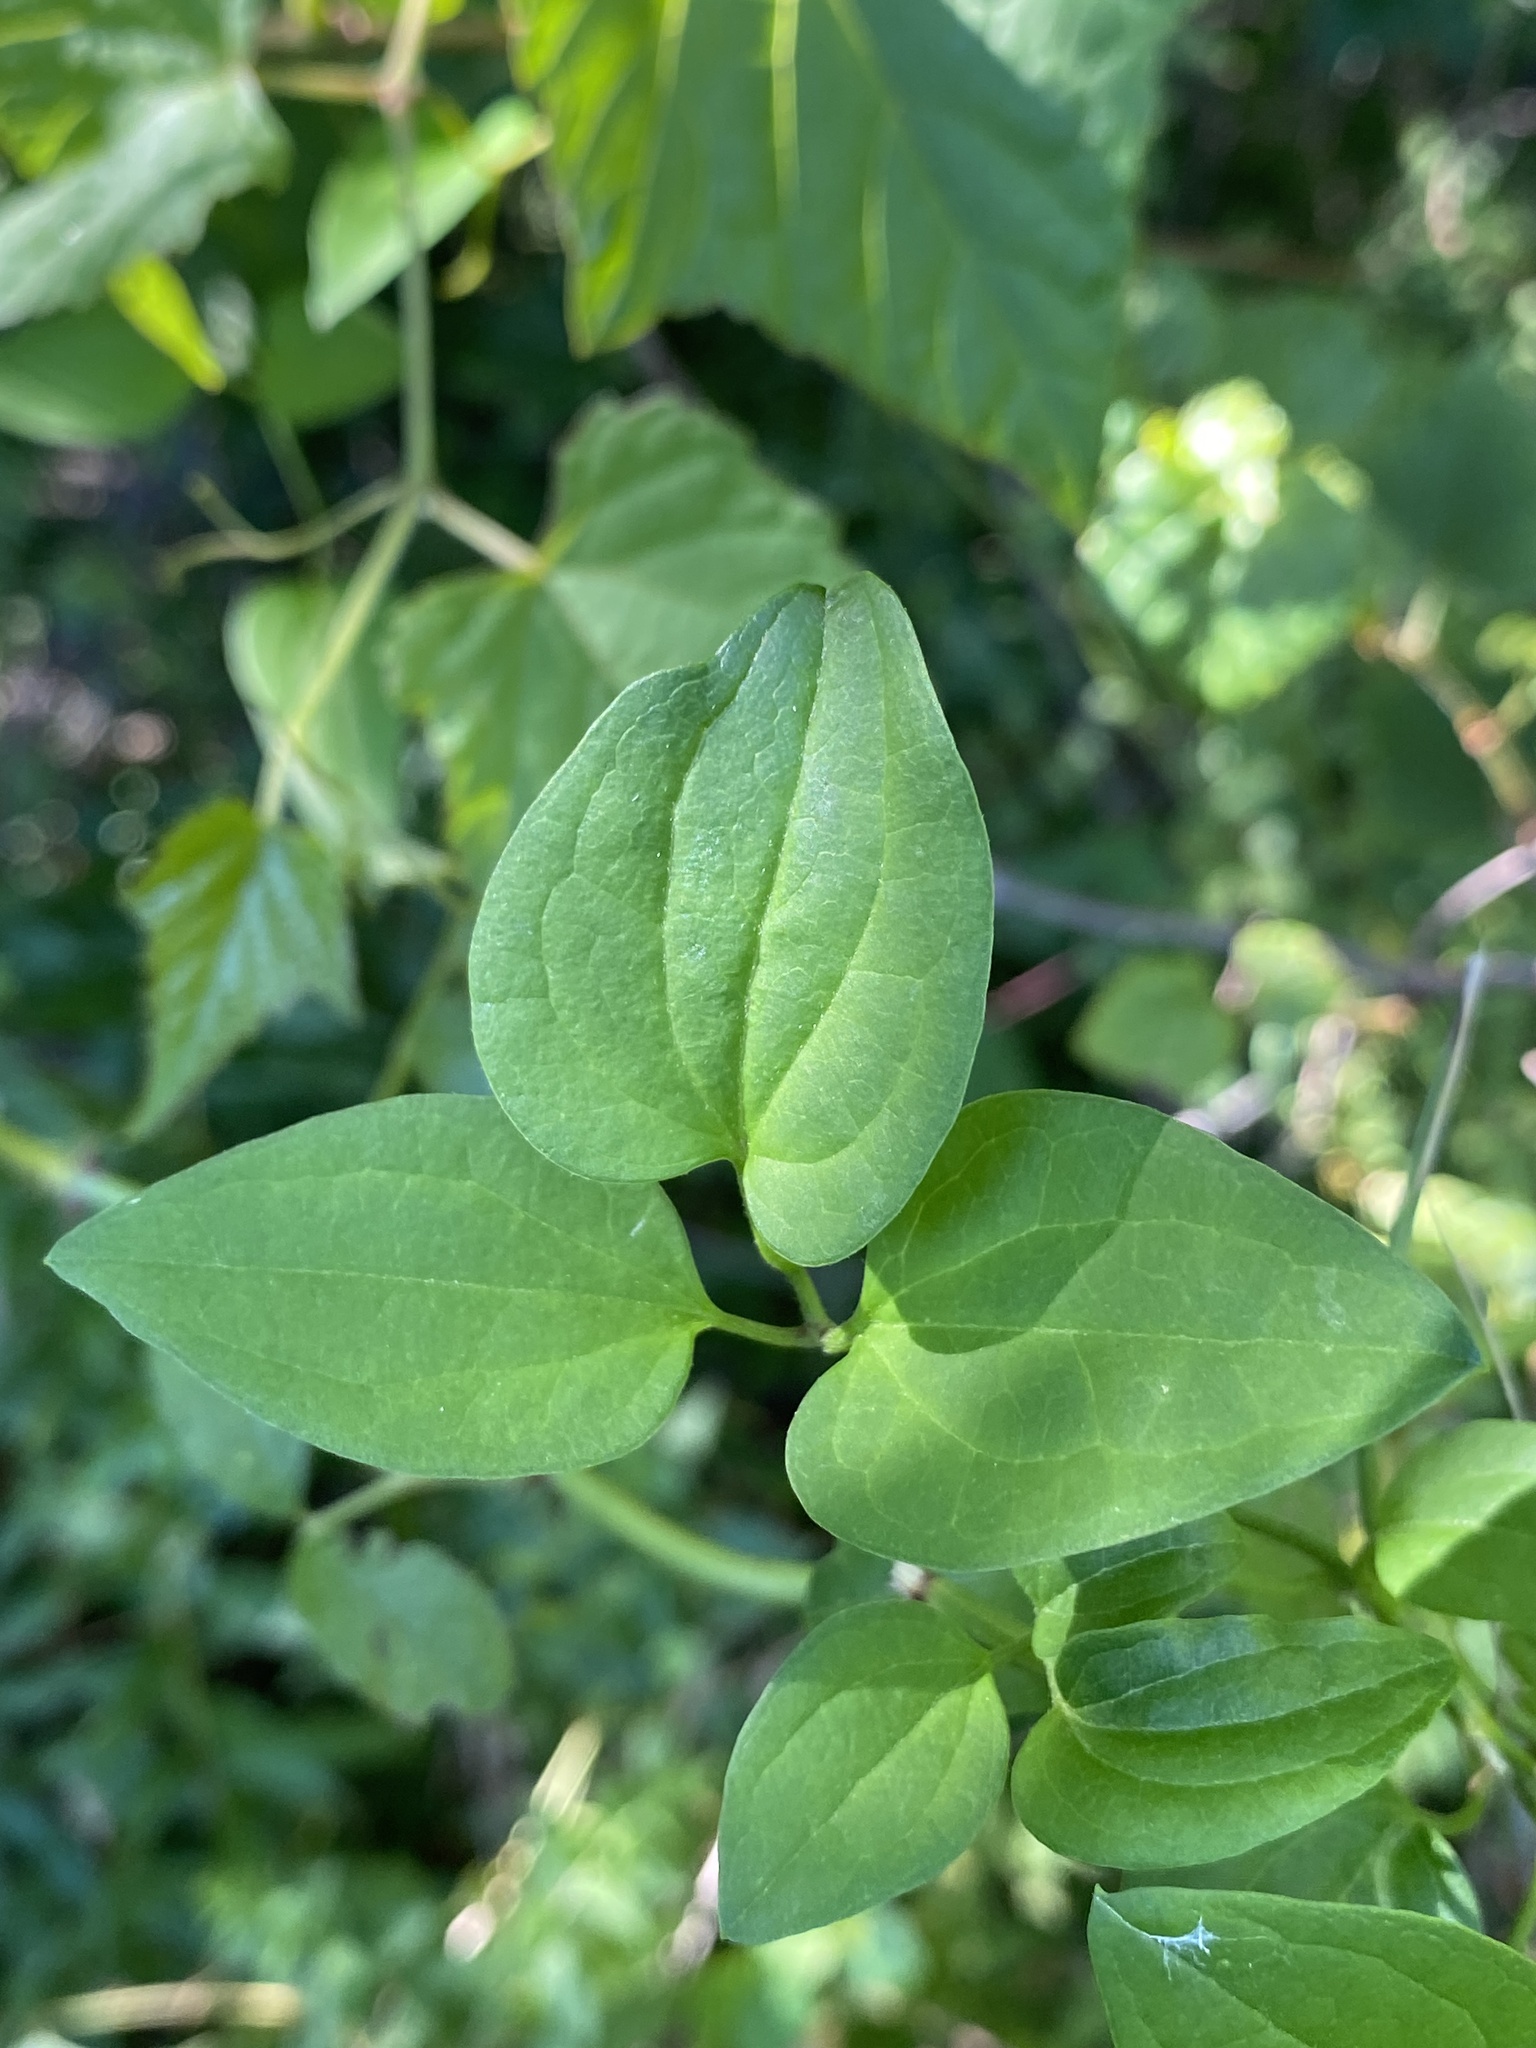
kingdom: Plantae
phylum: Tracheophyta
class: Magnoliopsida
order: Ranunculales
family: Ranunculaceae
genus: Clematis
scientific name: Clematis terniflora
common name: Sweet autumn clematis
